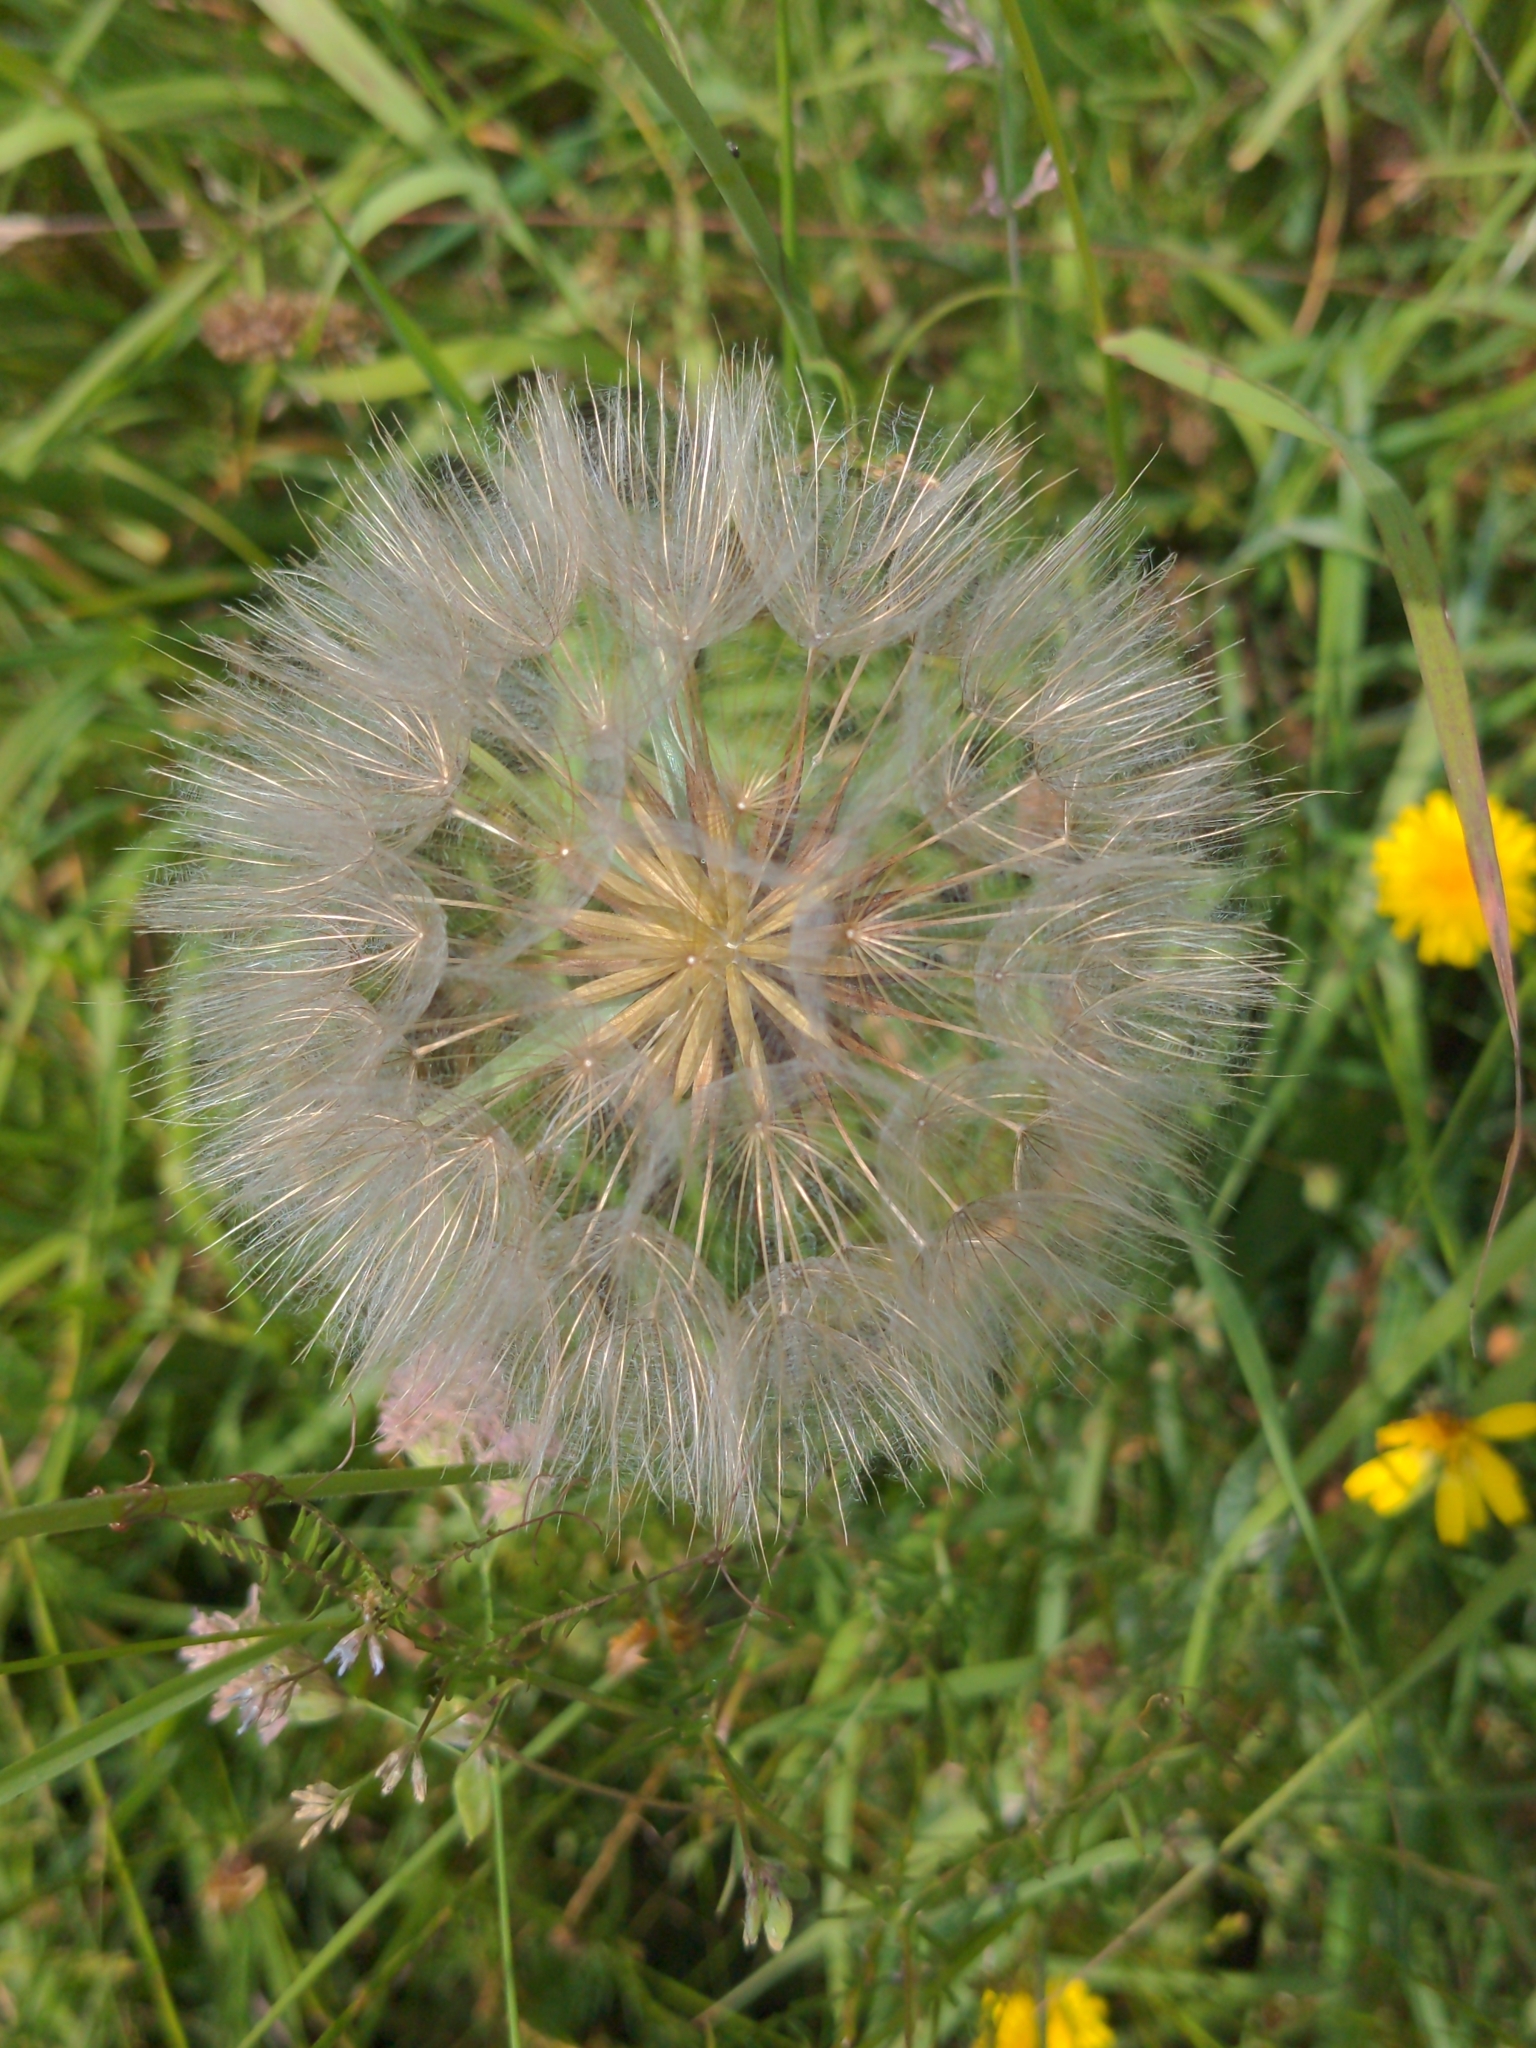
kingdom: Plantae
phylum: Tracheophyta
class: Magnoliopsida
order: Asterales
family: Asteraceae
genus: Tragopogon
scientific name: Tragopogon pratensis
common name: Goat's-beard
